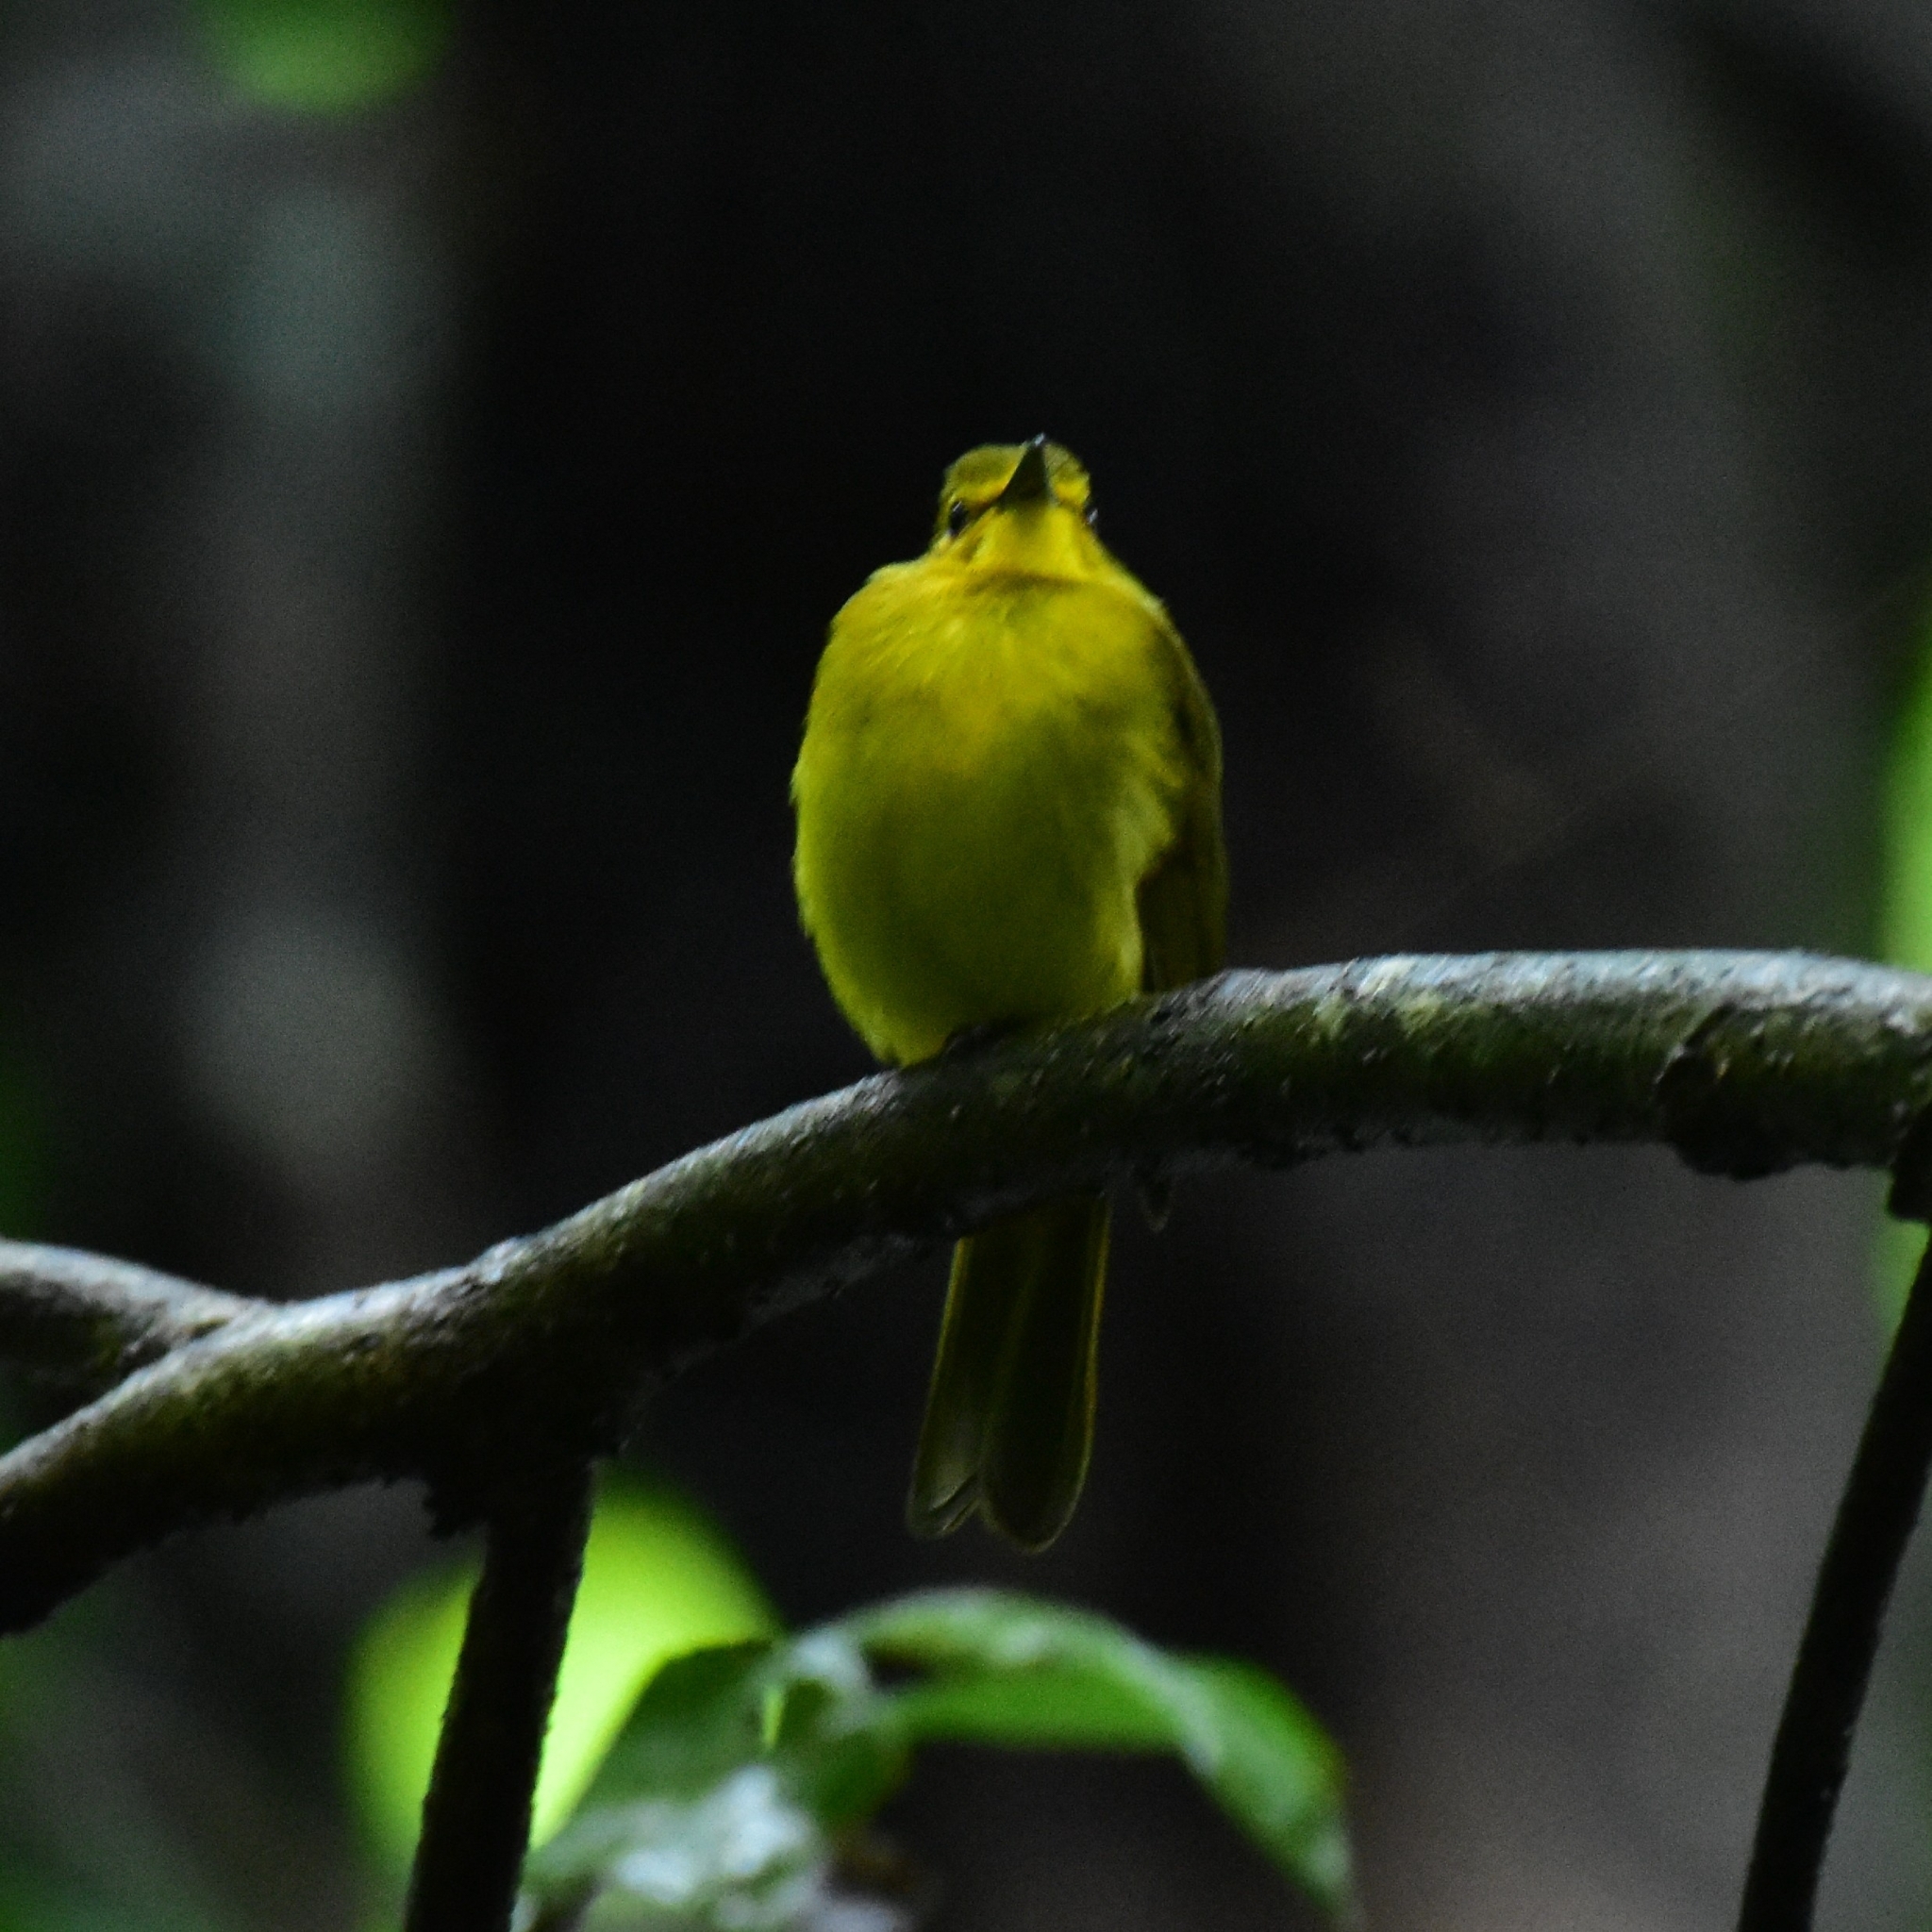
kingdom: Animalia
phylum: Chordata
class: Aves
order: Passeriformes
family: Pycnonotidae
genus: Acritillas
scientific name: Acritillas indica
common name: Yellow-browed bulbul
